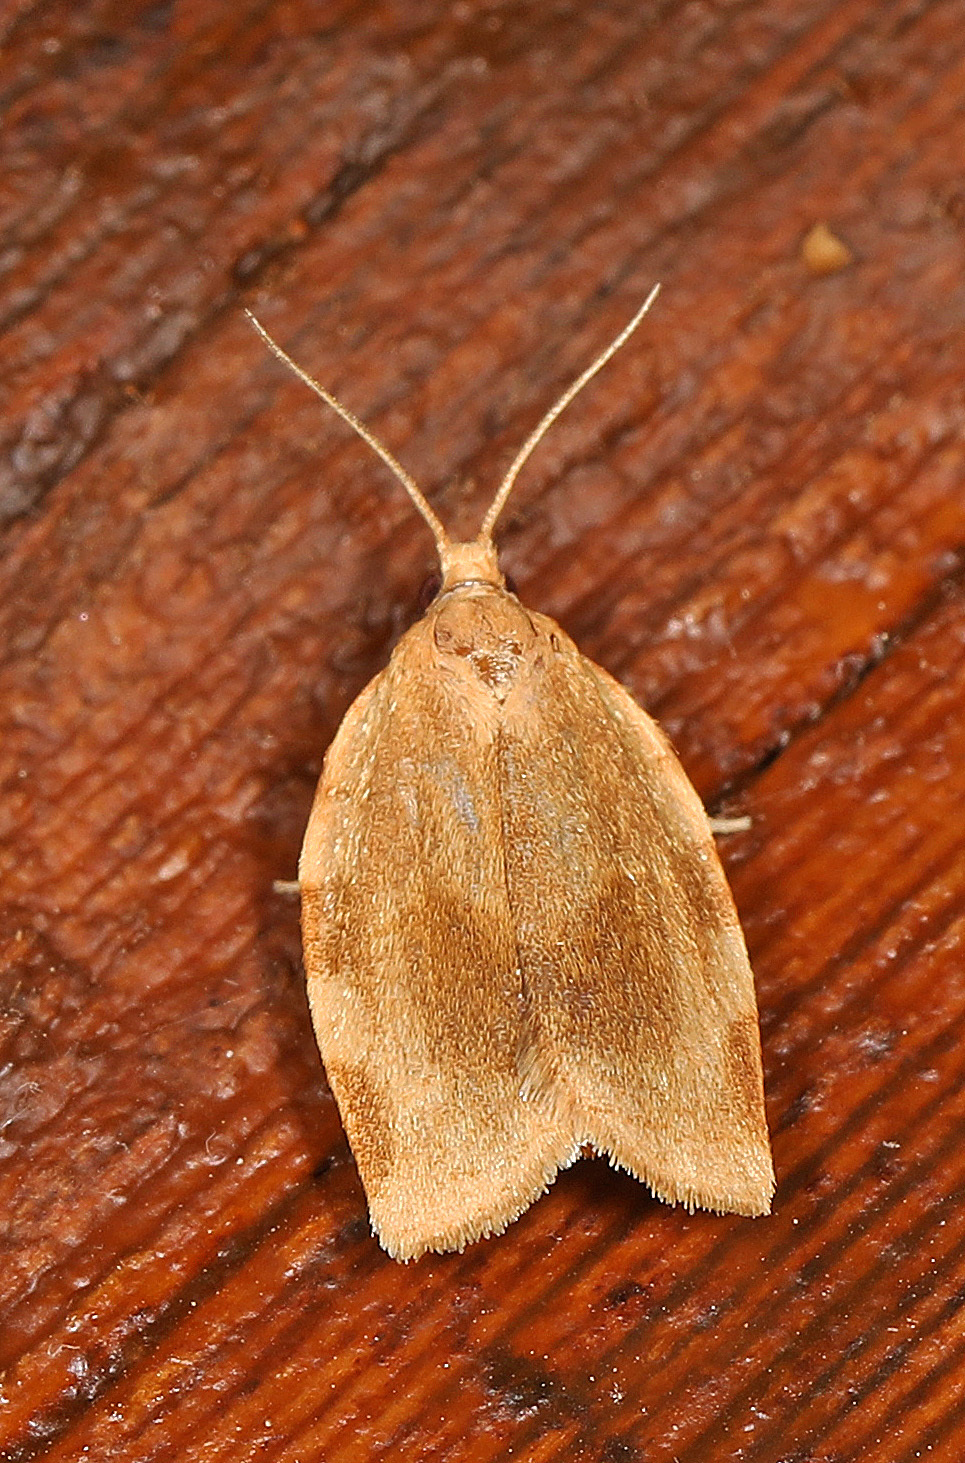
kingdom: Animalia
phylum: Arthropoda
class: Insecta
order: Lepidoptera
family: Tortricidae
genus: Choristoneura
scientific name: Choristoneura fractivittana
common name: Broken-banded leafroller moth
